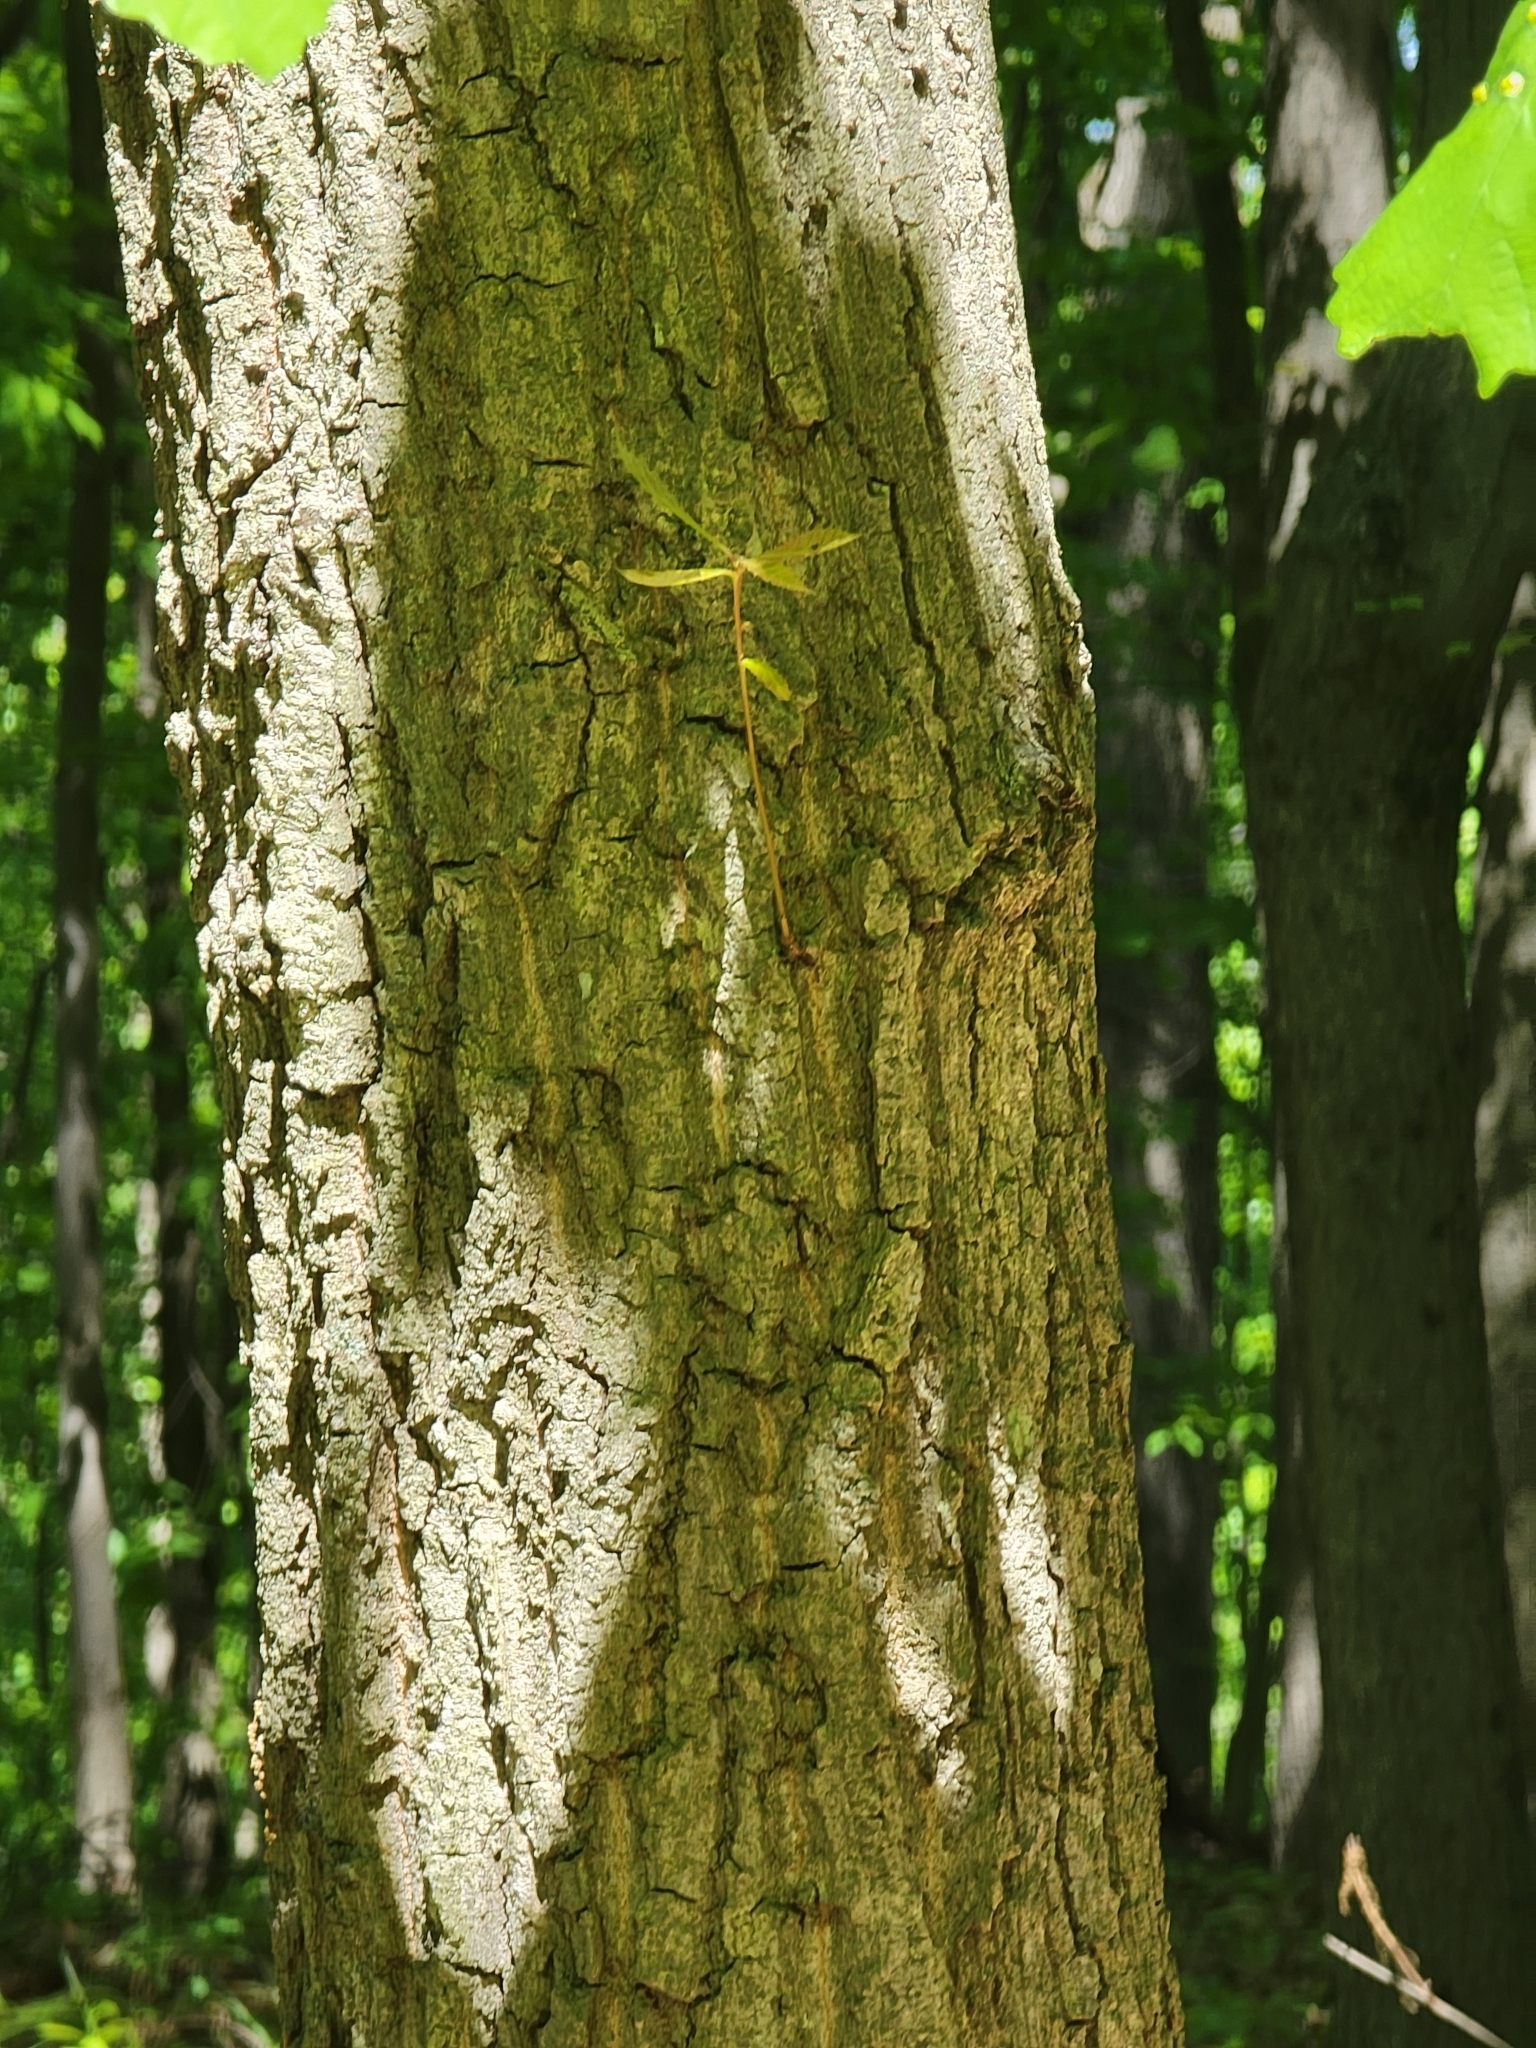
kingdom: Plantae
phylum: Tracheophyta
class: Magnoliopsida
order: Fagales
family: Fagaceae
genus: Quercus
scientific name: Quercus montana
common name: Chestnut oak
